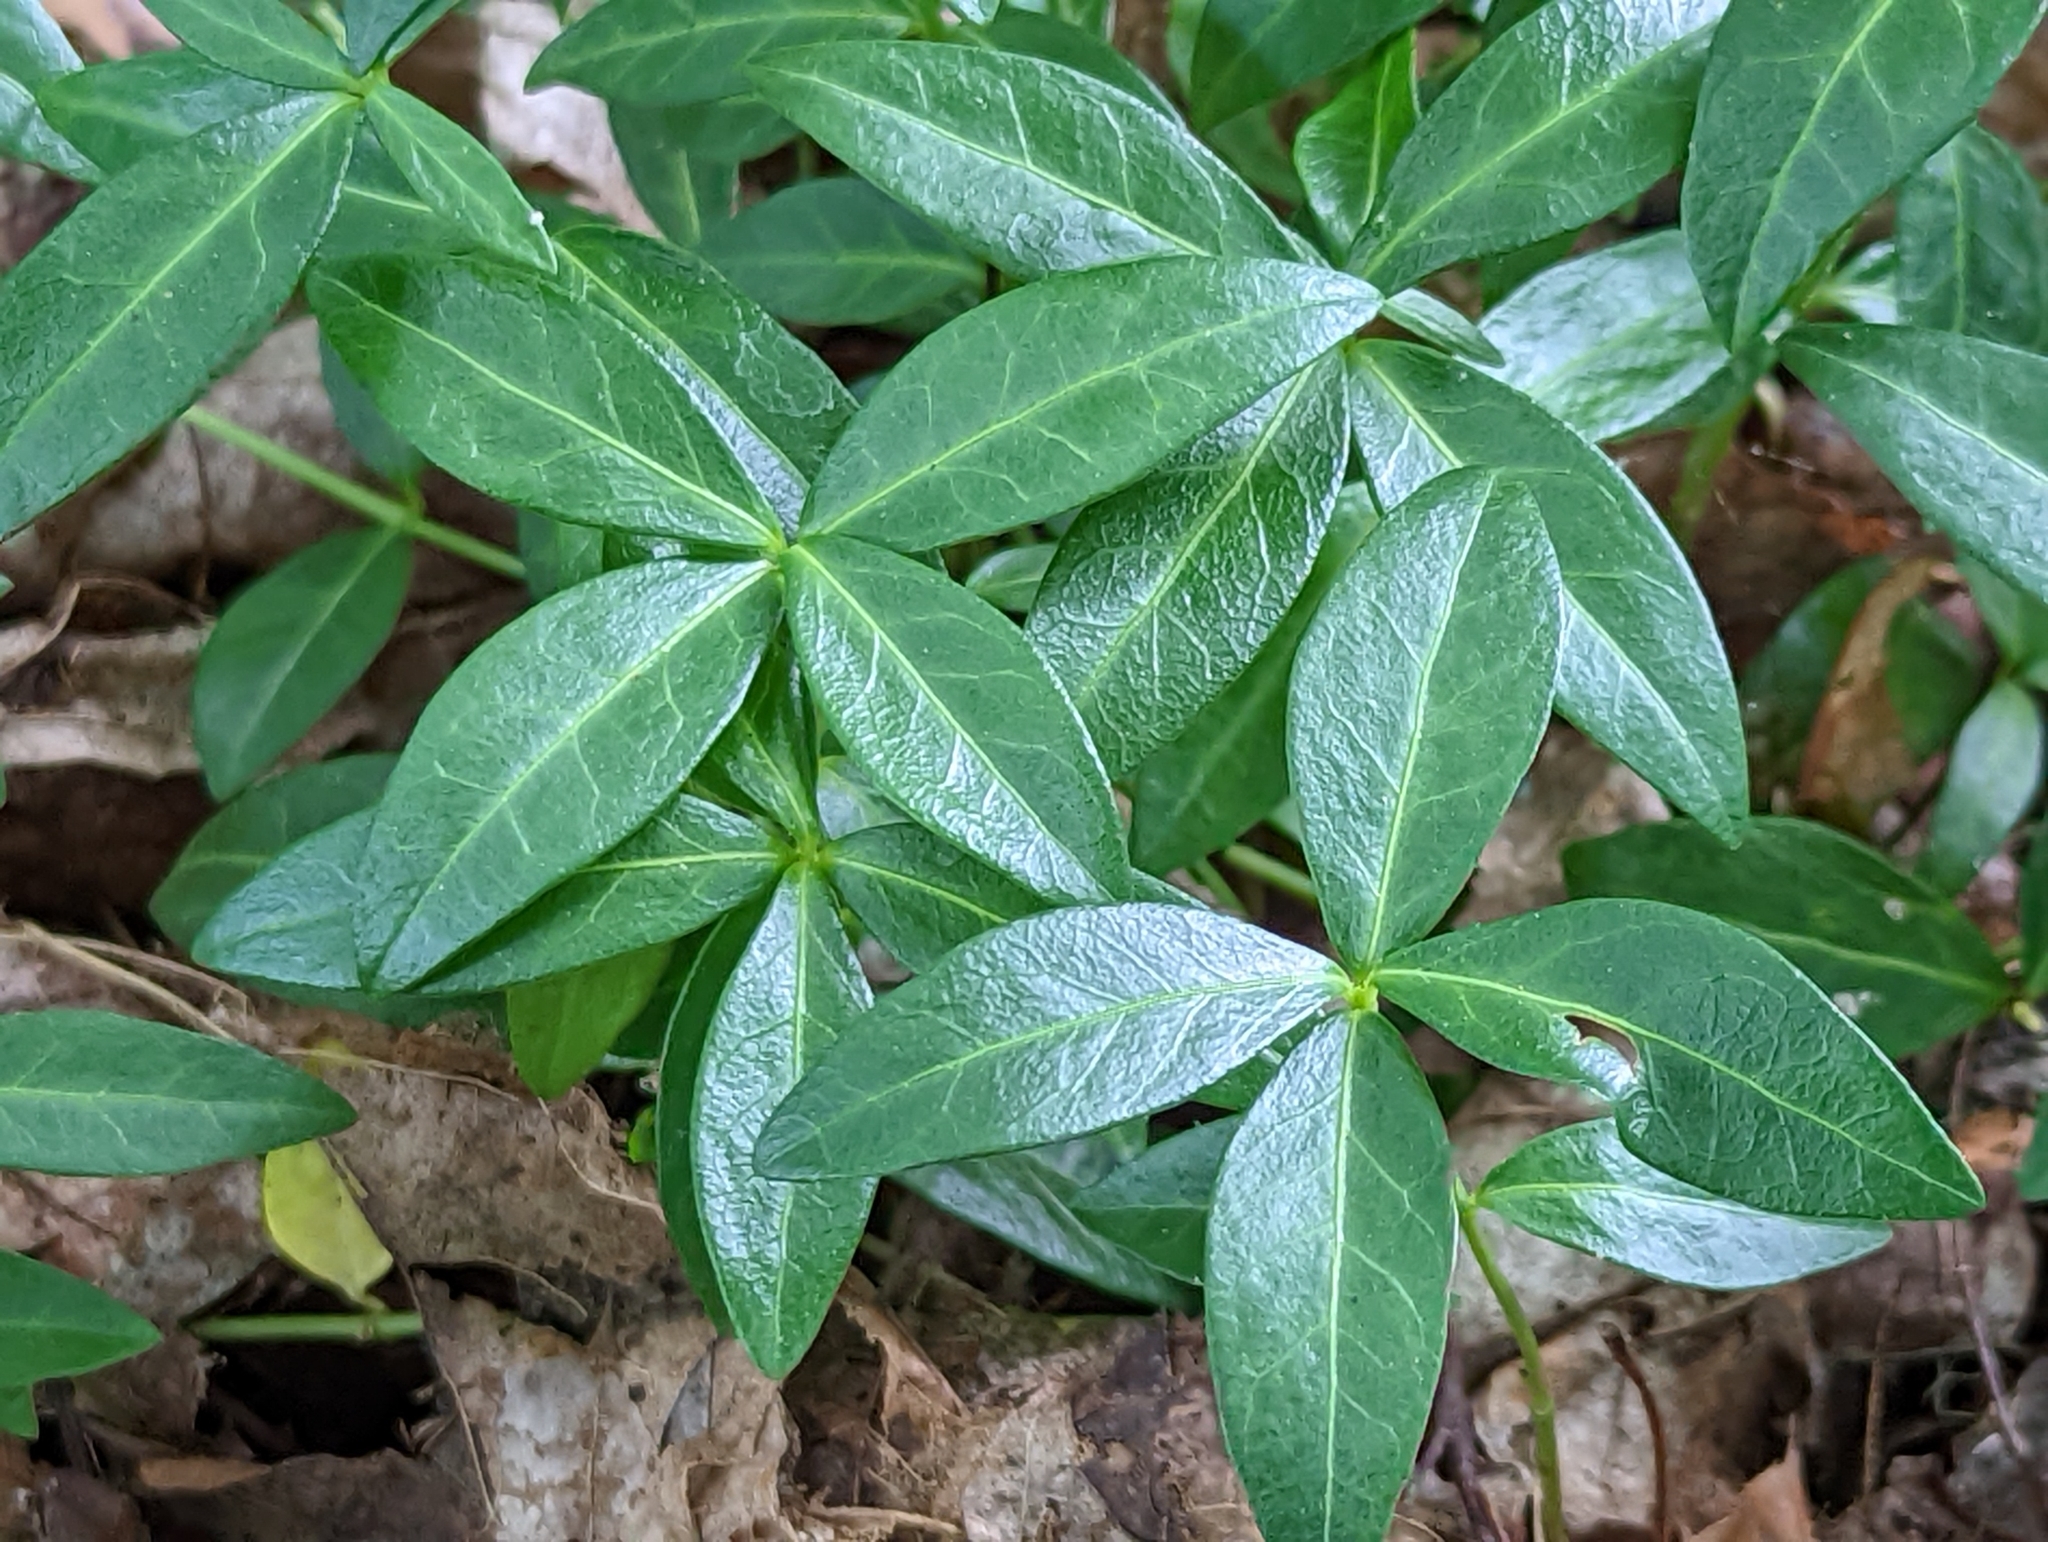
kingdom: Plantae
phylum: Tracheophyta
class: Magnoliopsida
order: Gentianales
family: Apocynaceae
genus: Vinca
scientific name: Vinca minor
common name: Lesser periwinkle
